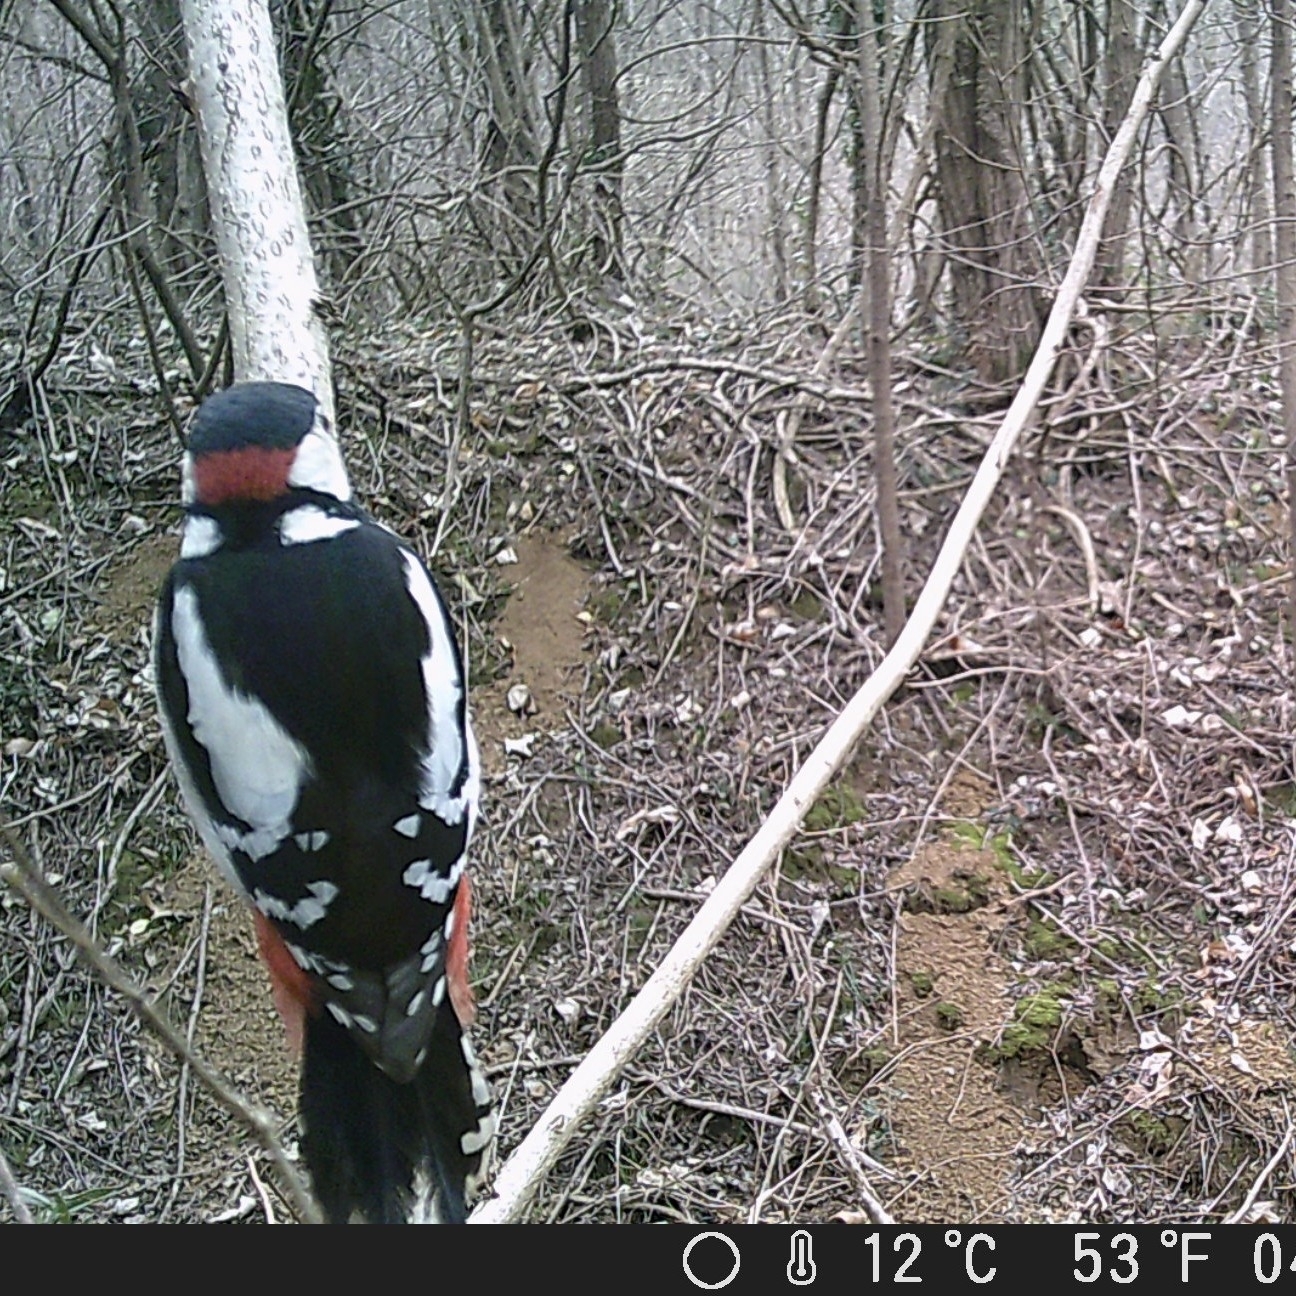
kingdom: Animalia
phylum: Chordata
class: Aves
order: Piciformes
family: Picidae
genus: Dendrocopos
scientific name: Dendrocopos major
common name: Great spotted woodpecker
